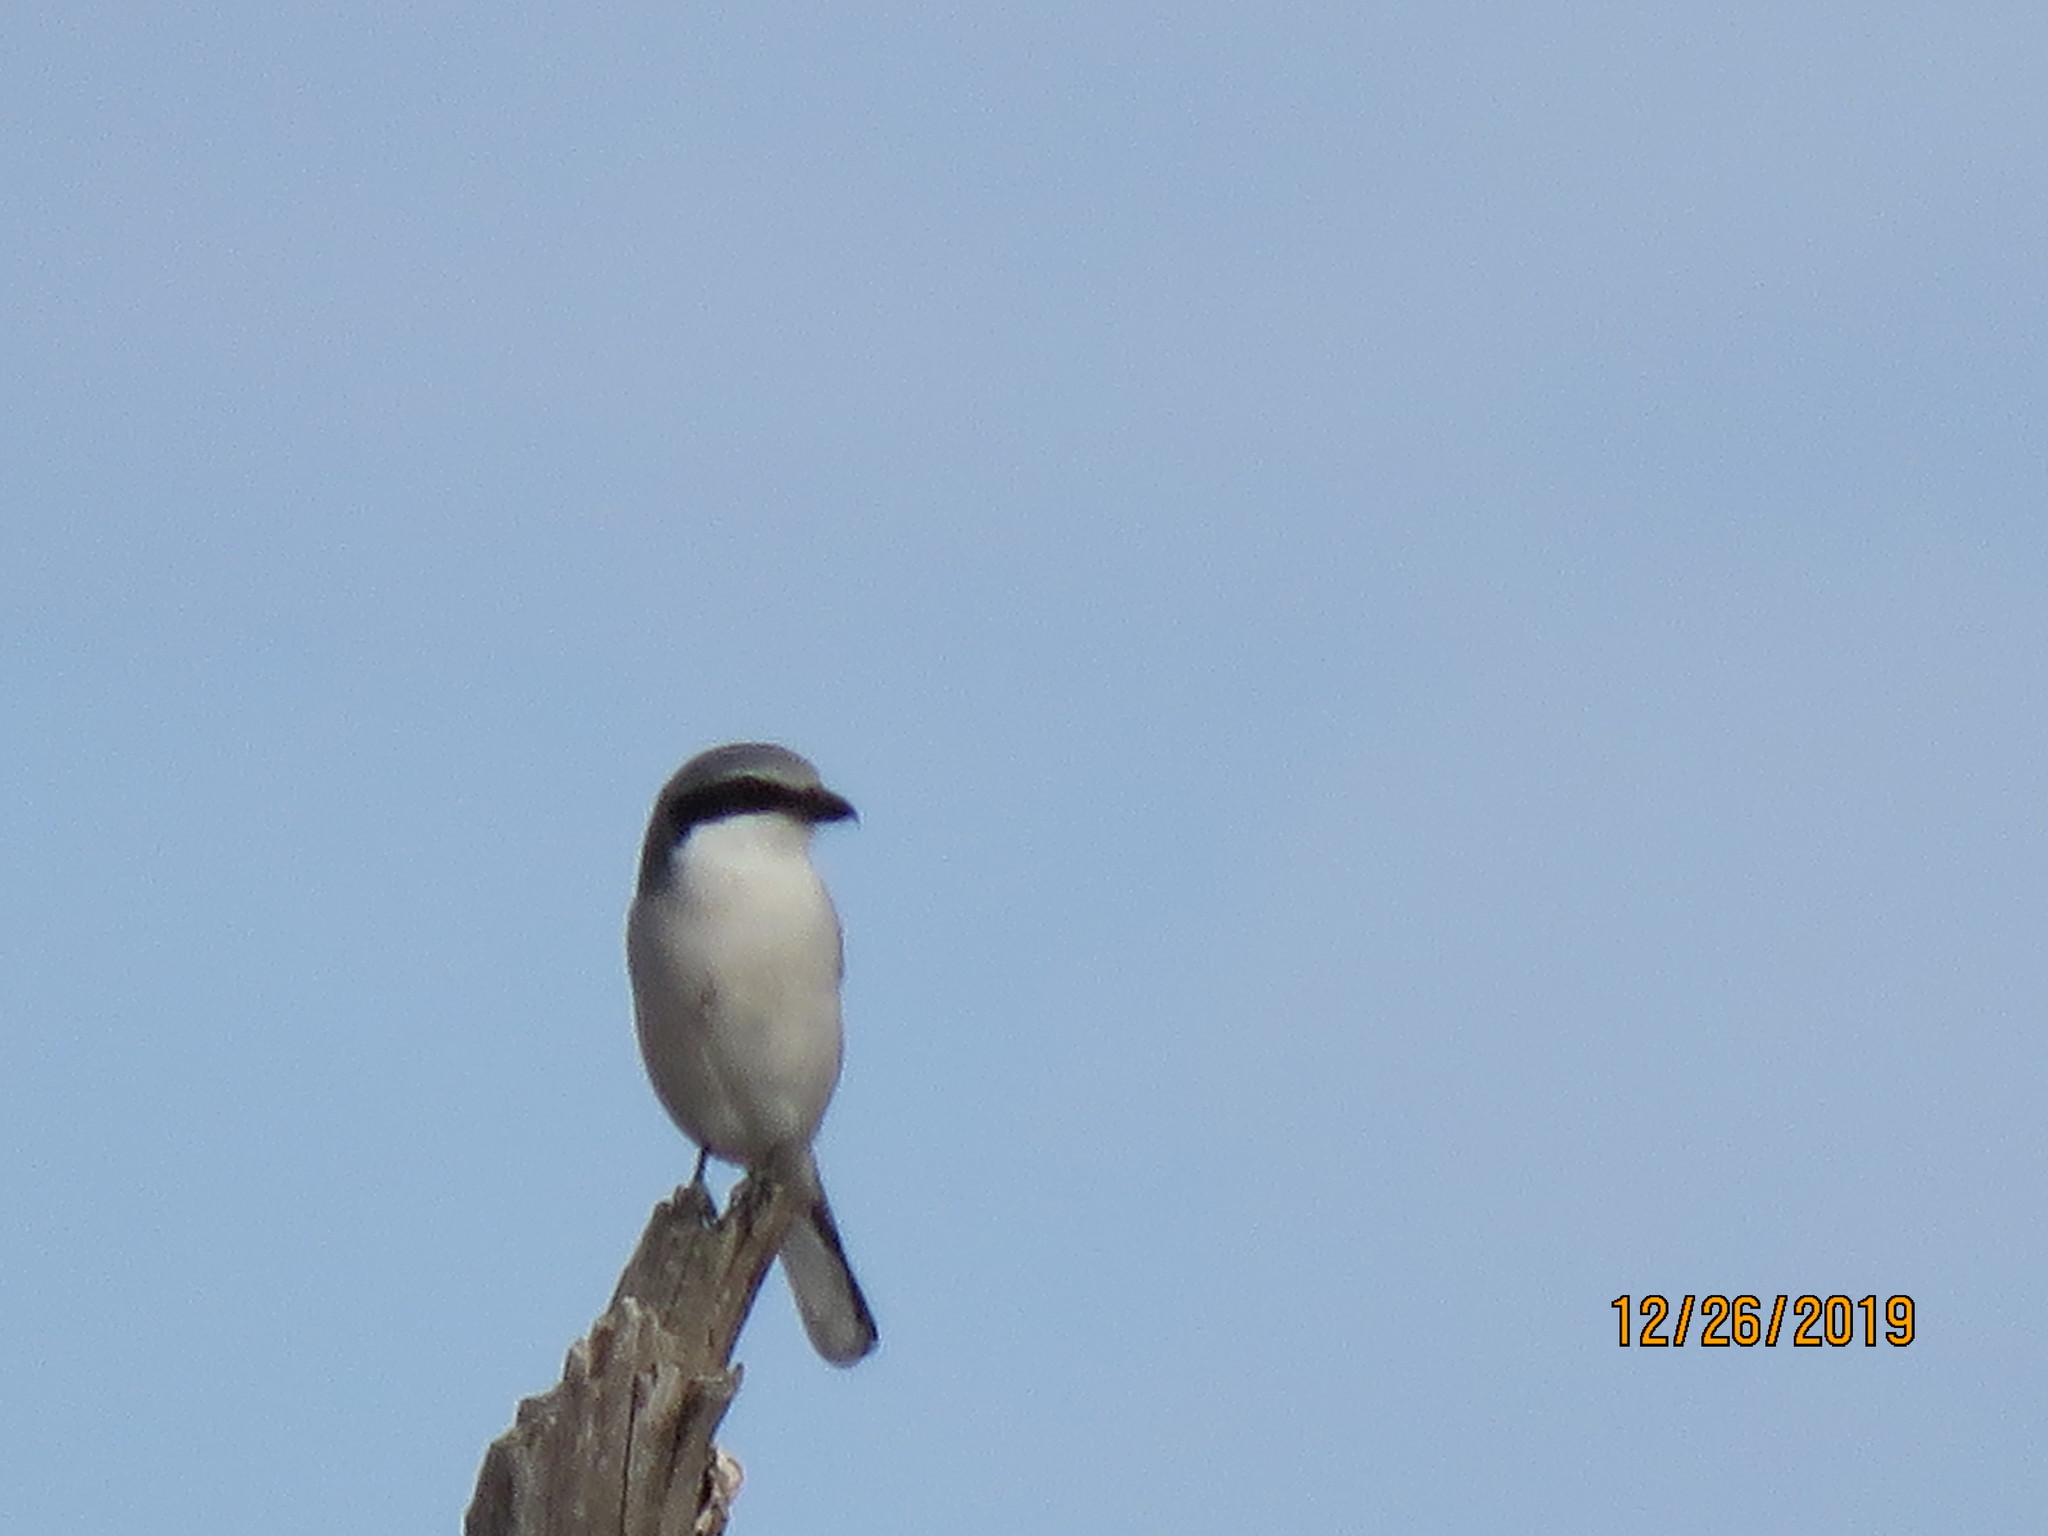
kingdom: Animalia
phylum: Chordata
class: Aves
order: Passeriformes
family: Laniidae
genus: Lanius
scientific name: Lanius ludovicianus
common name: Loggerhead shrike
